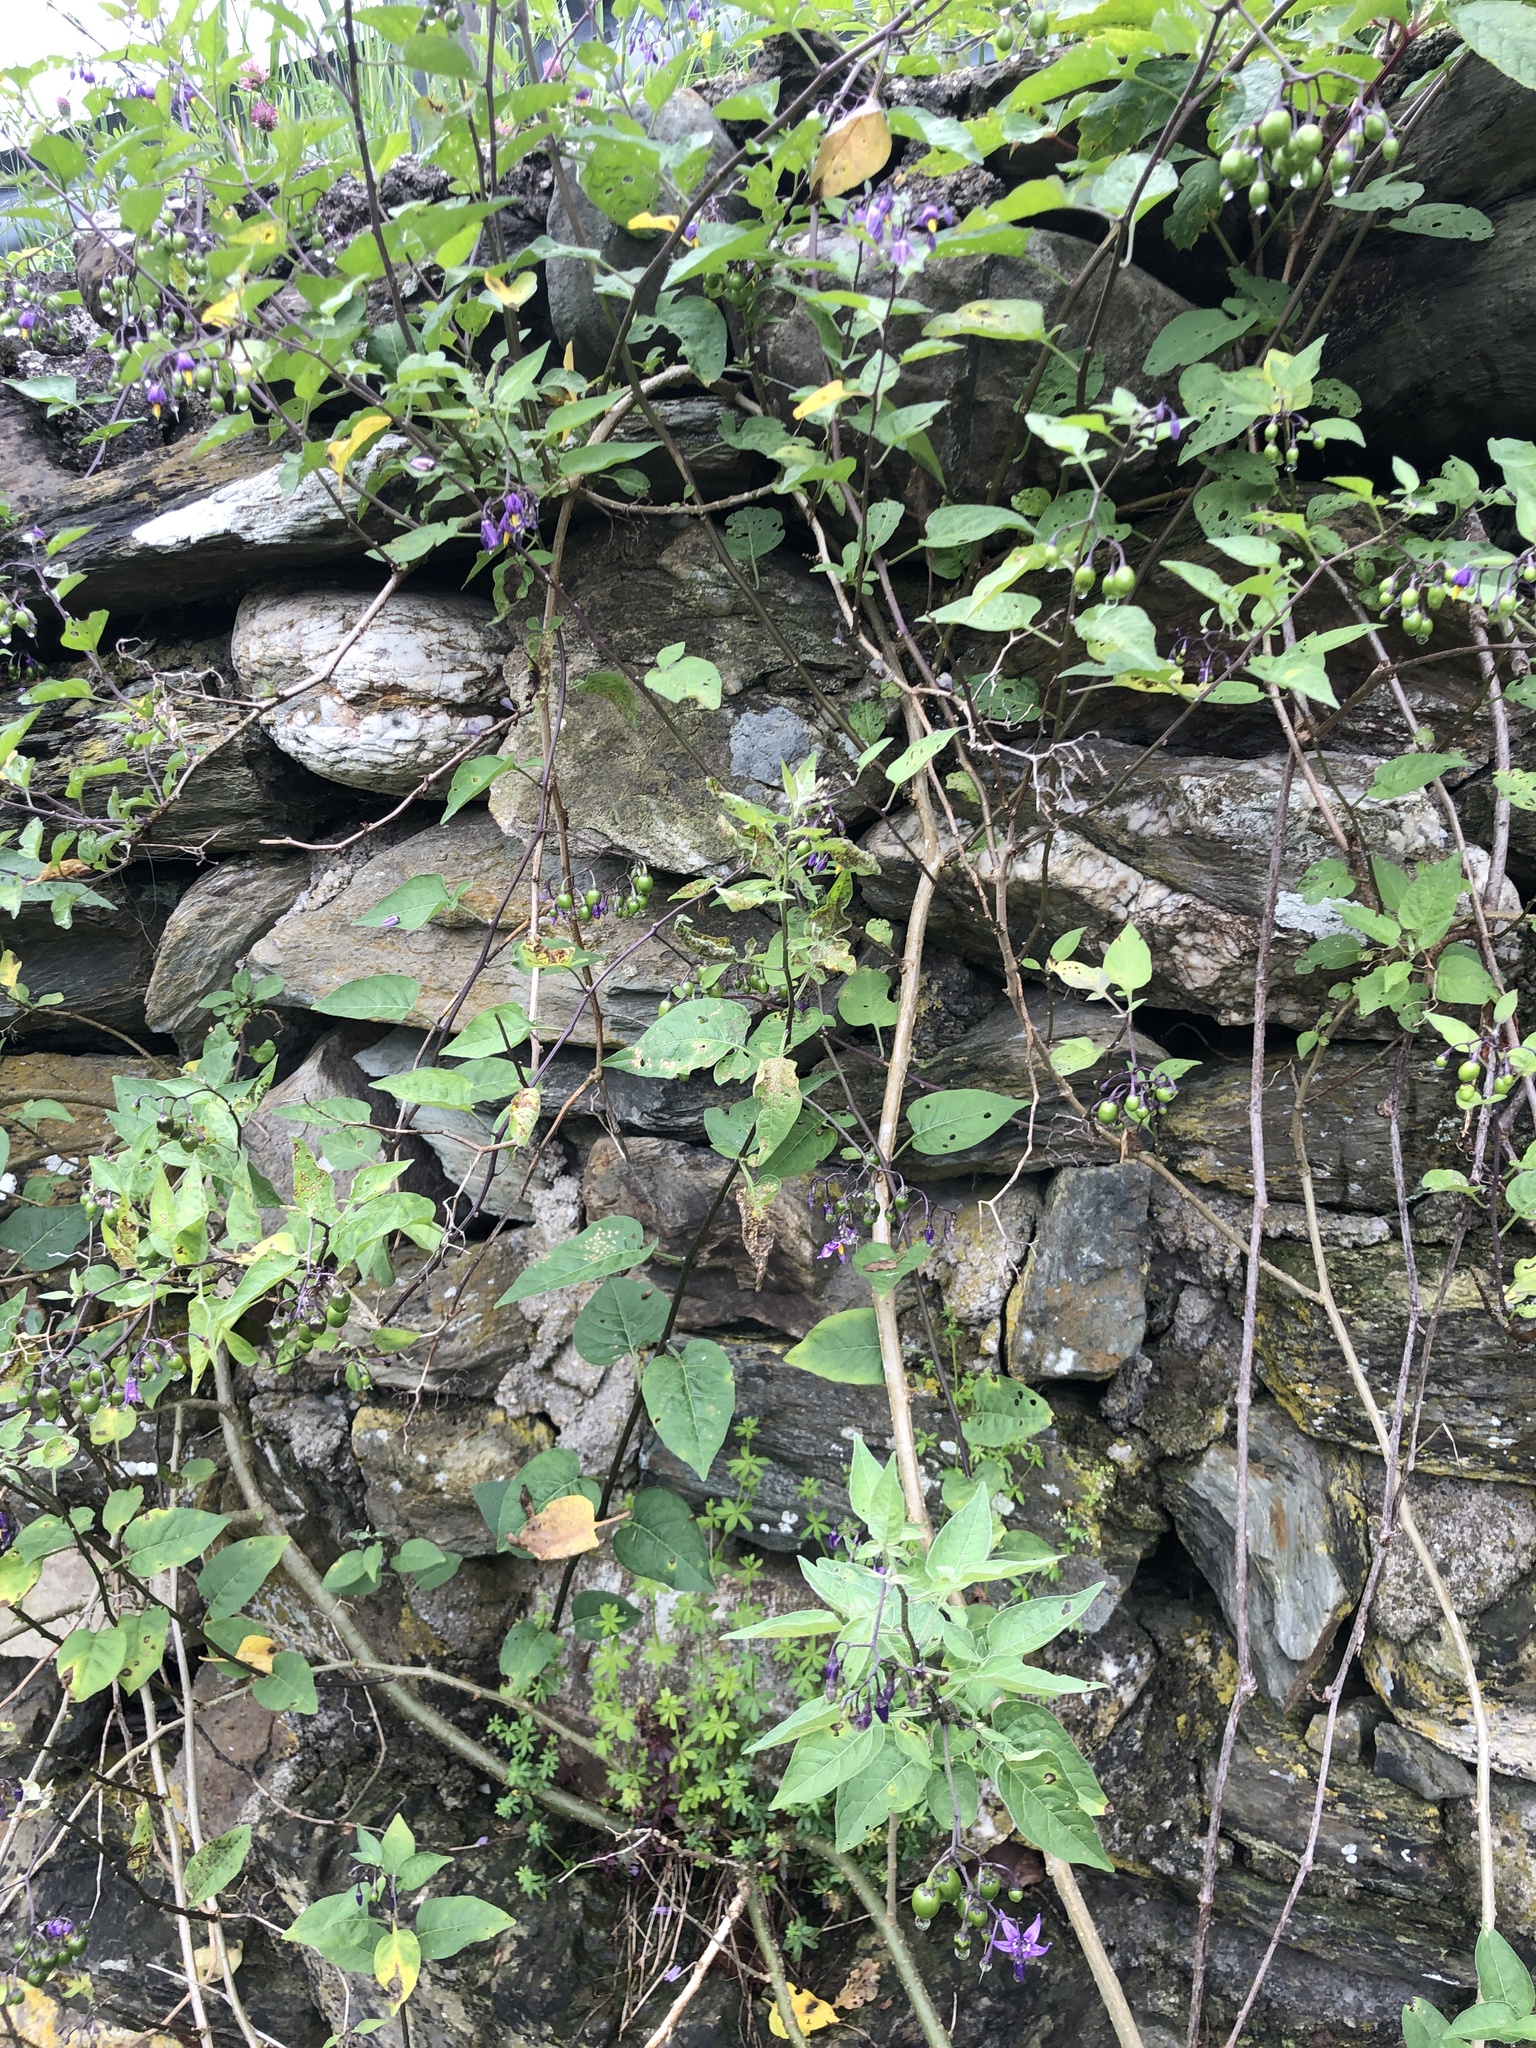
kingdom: Plantae
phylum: Tracheophyta
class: Magnoliopsida
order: Solanales
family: Solanaceae
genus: Solanum
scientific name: Solanum dulcamara
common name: Climbing nightshade
